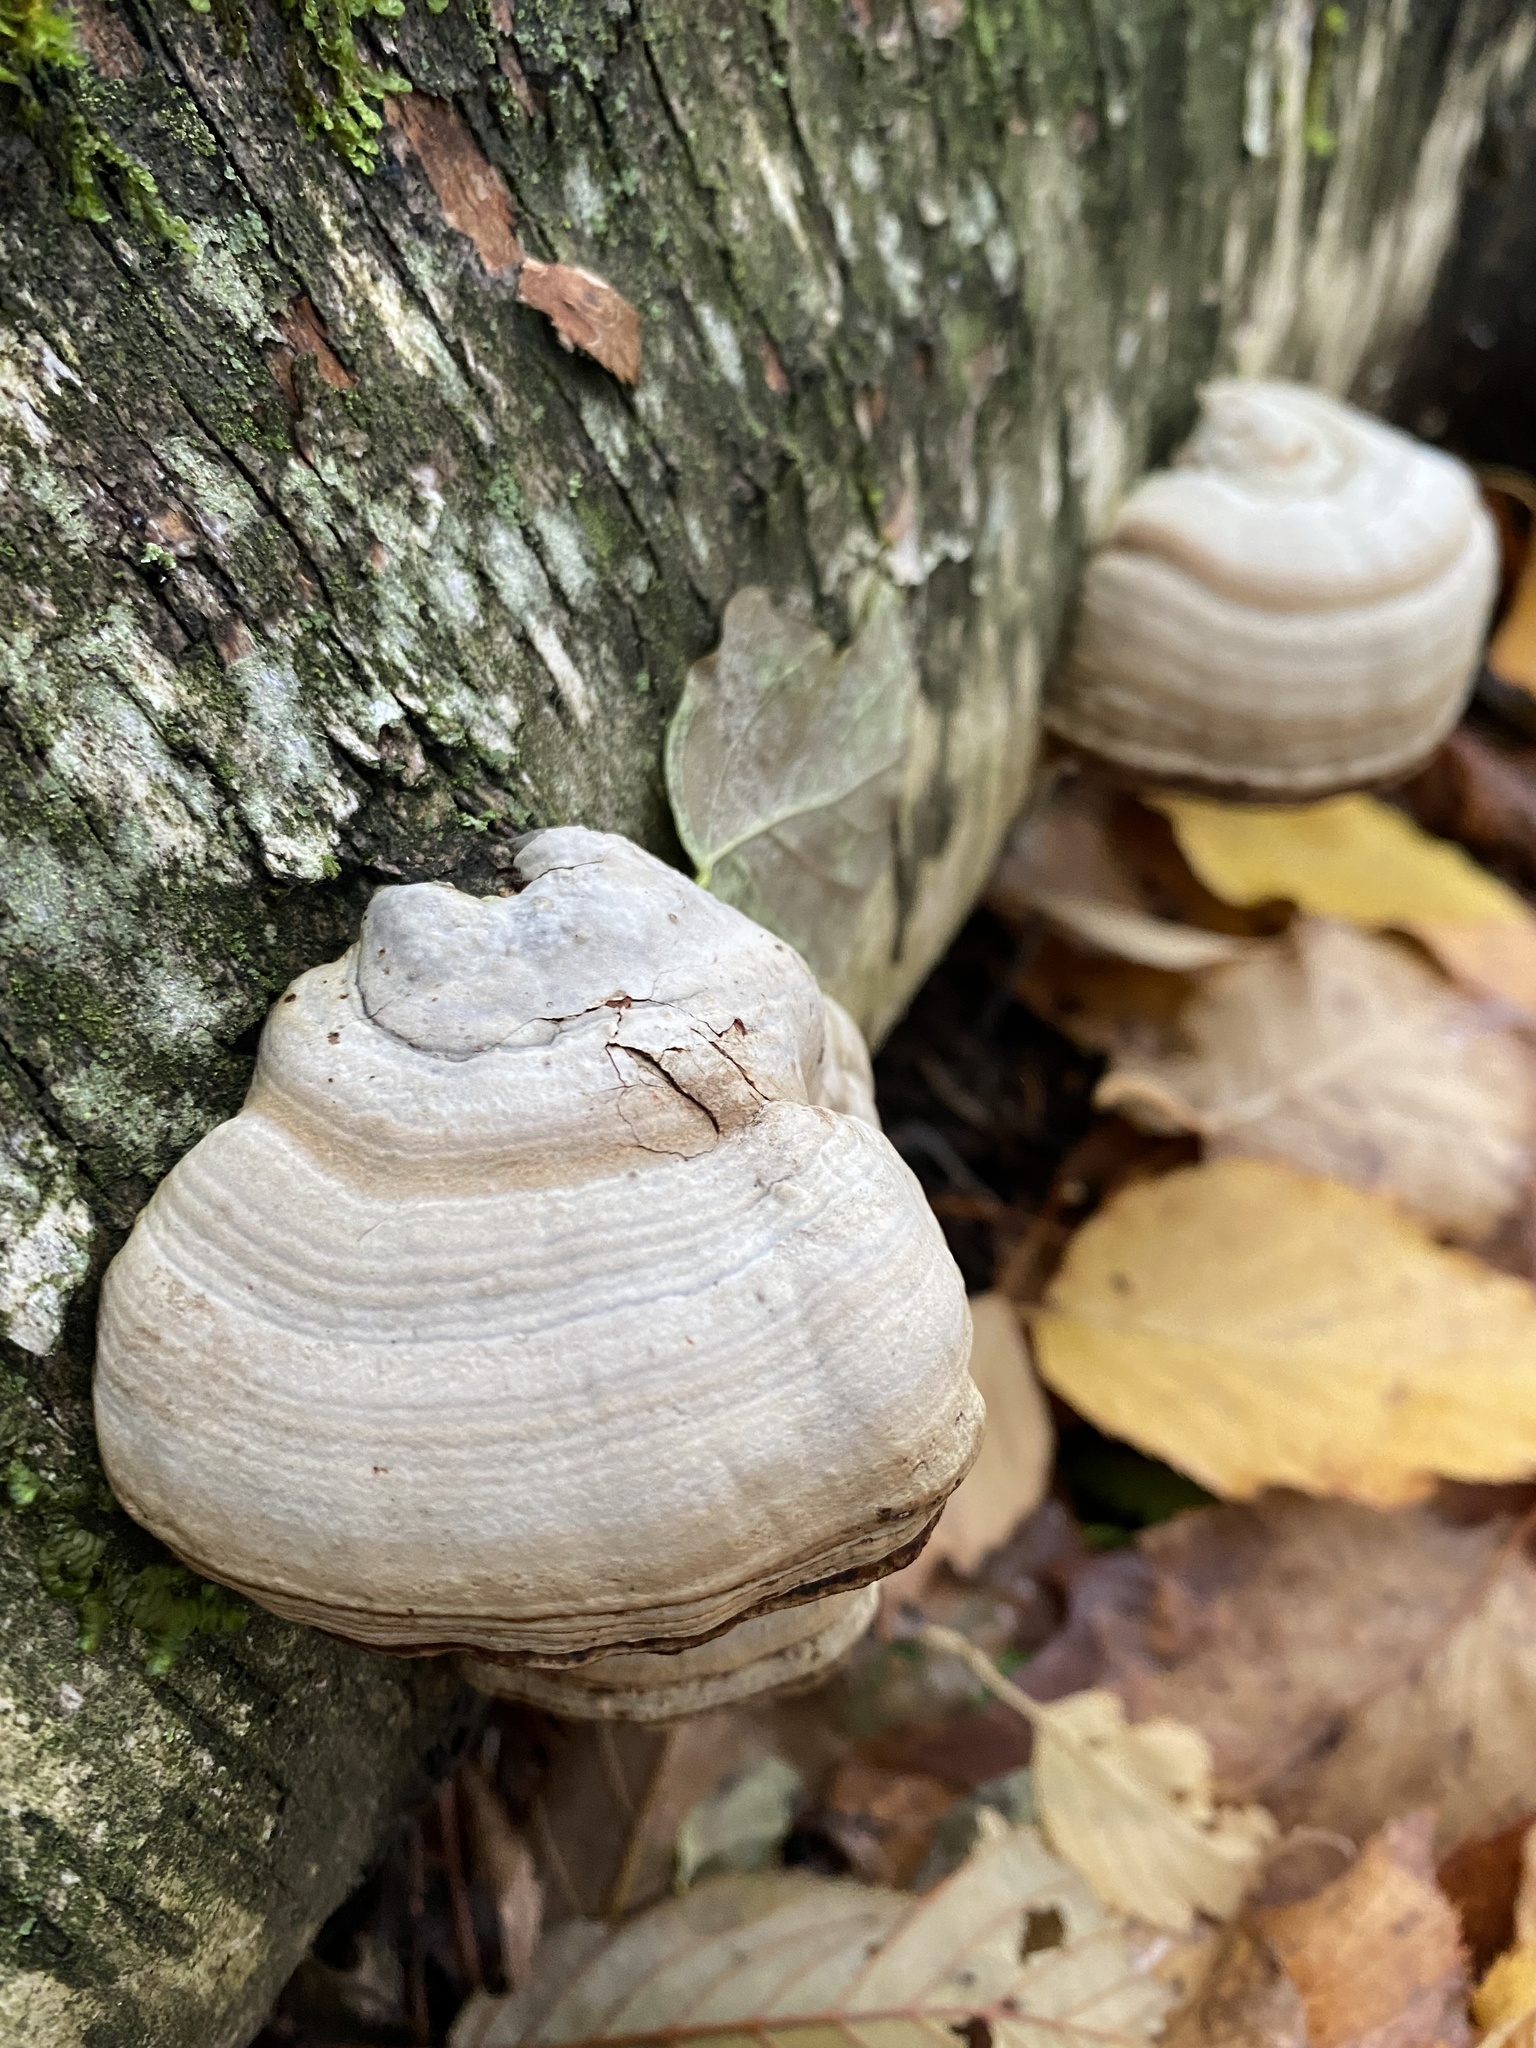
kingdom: Fungi
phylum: Basidiomycota
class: Agaricomycetes
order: Polyporales
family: Polyporaceae
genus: Fomes
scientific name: Fomes fomentarius
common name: Hoof fungus
